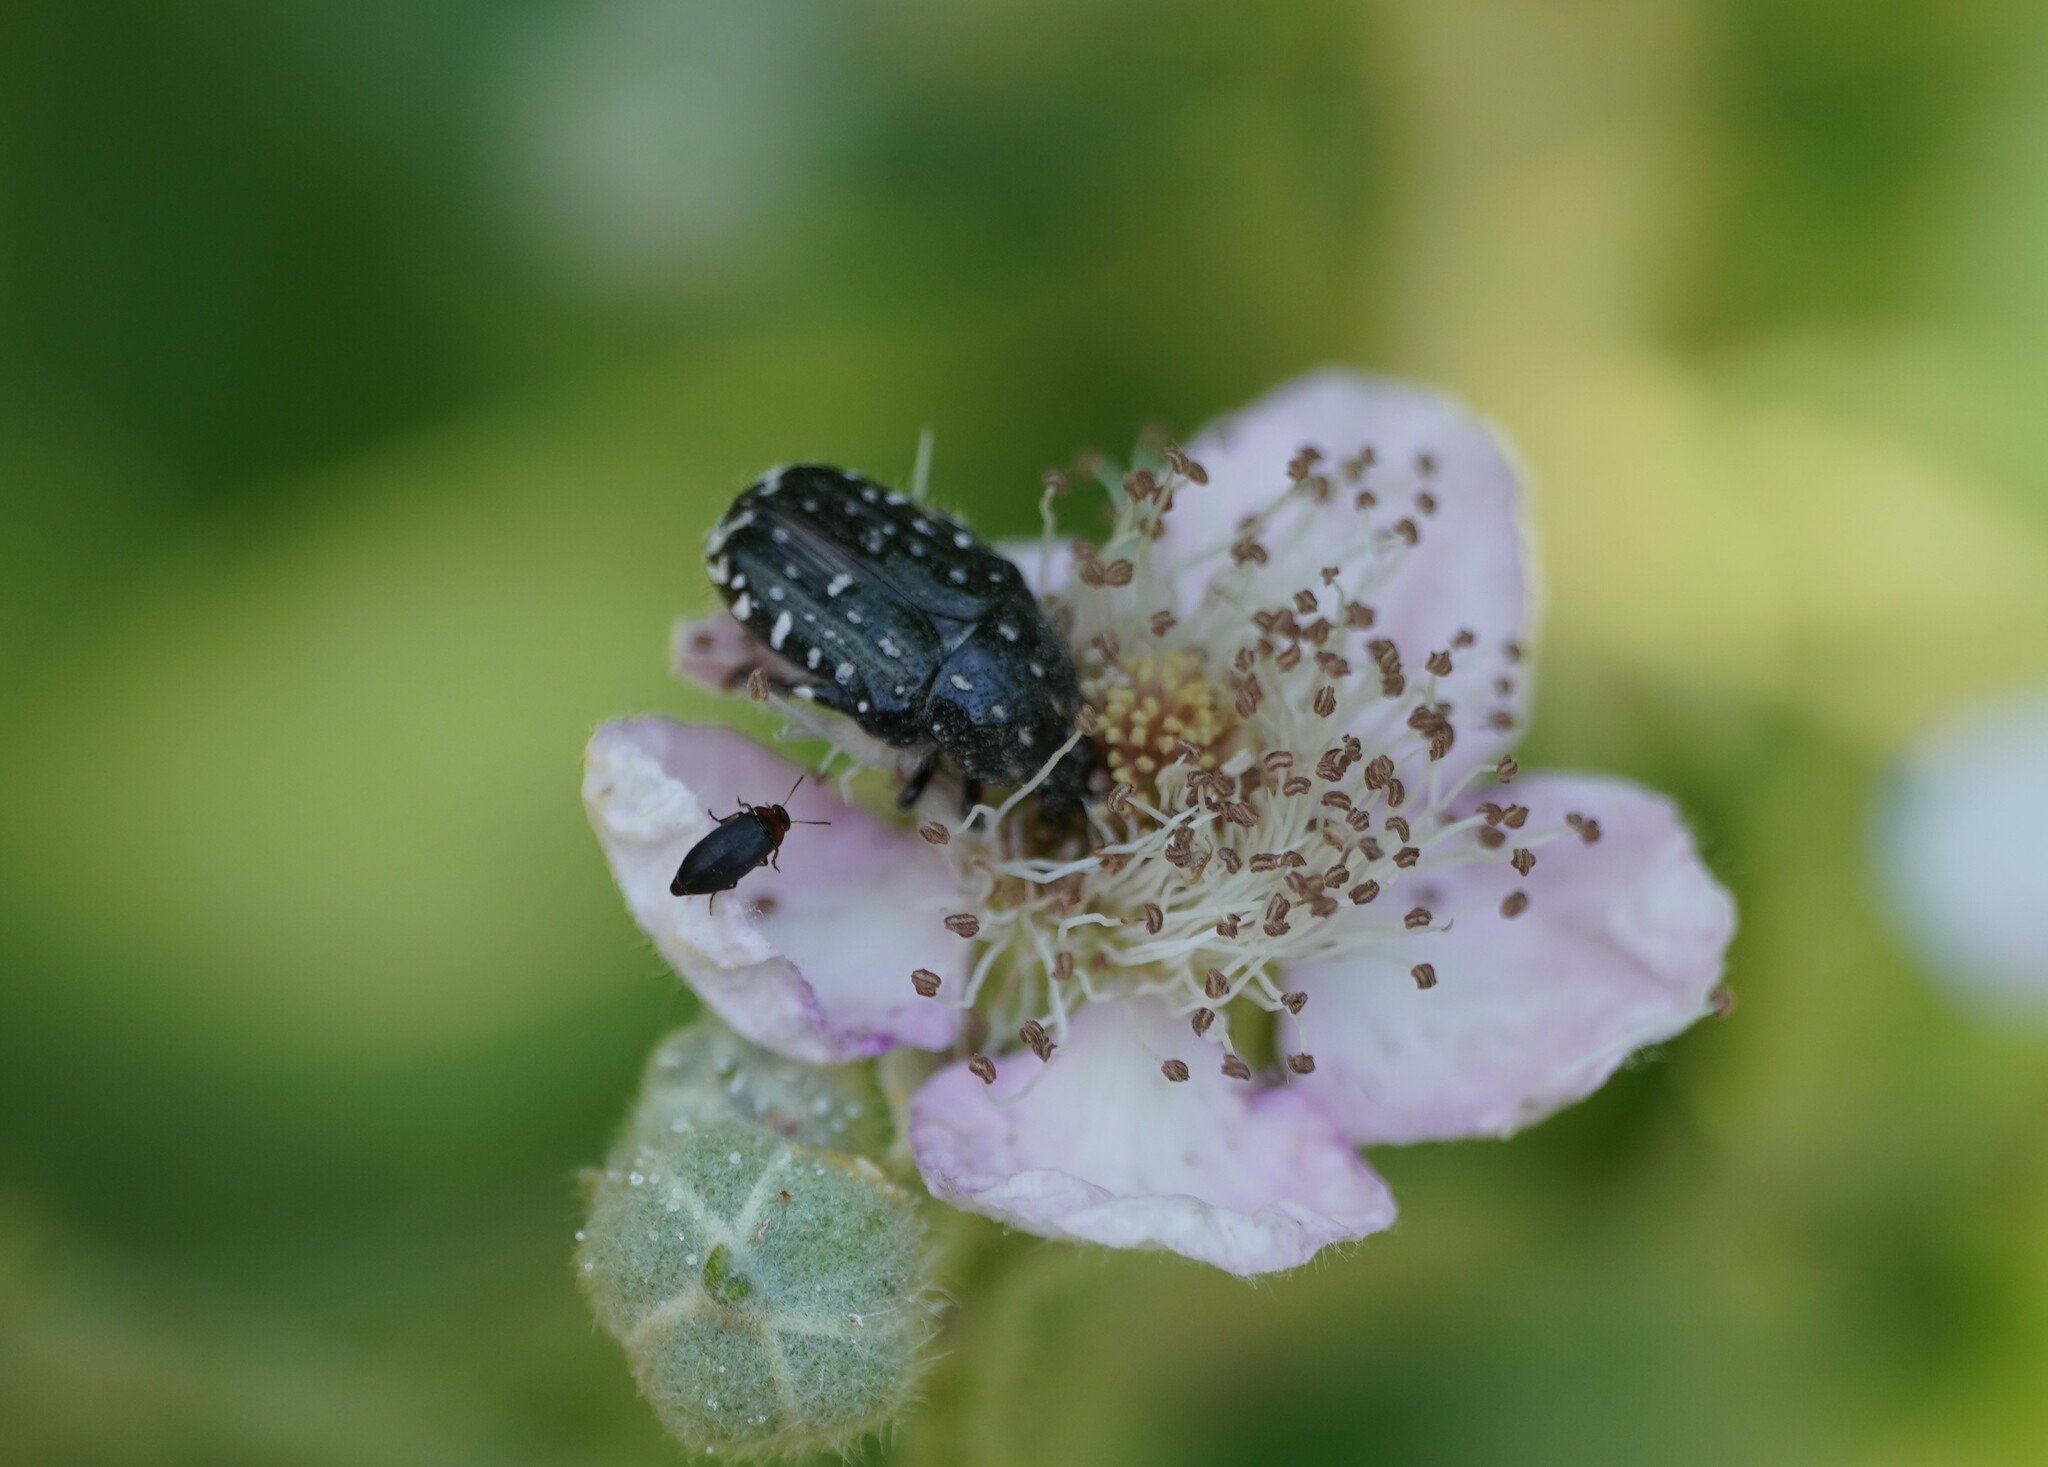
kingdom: Animalia
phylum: Arthropoda
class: Insecta
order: Coleoptera
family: Scarabaeidae
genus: Oxythyrea
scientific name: Oxythyrea funesta
